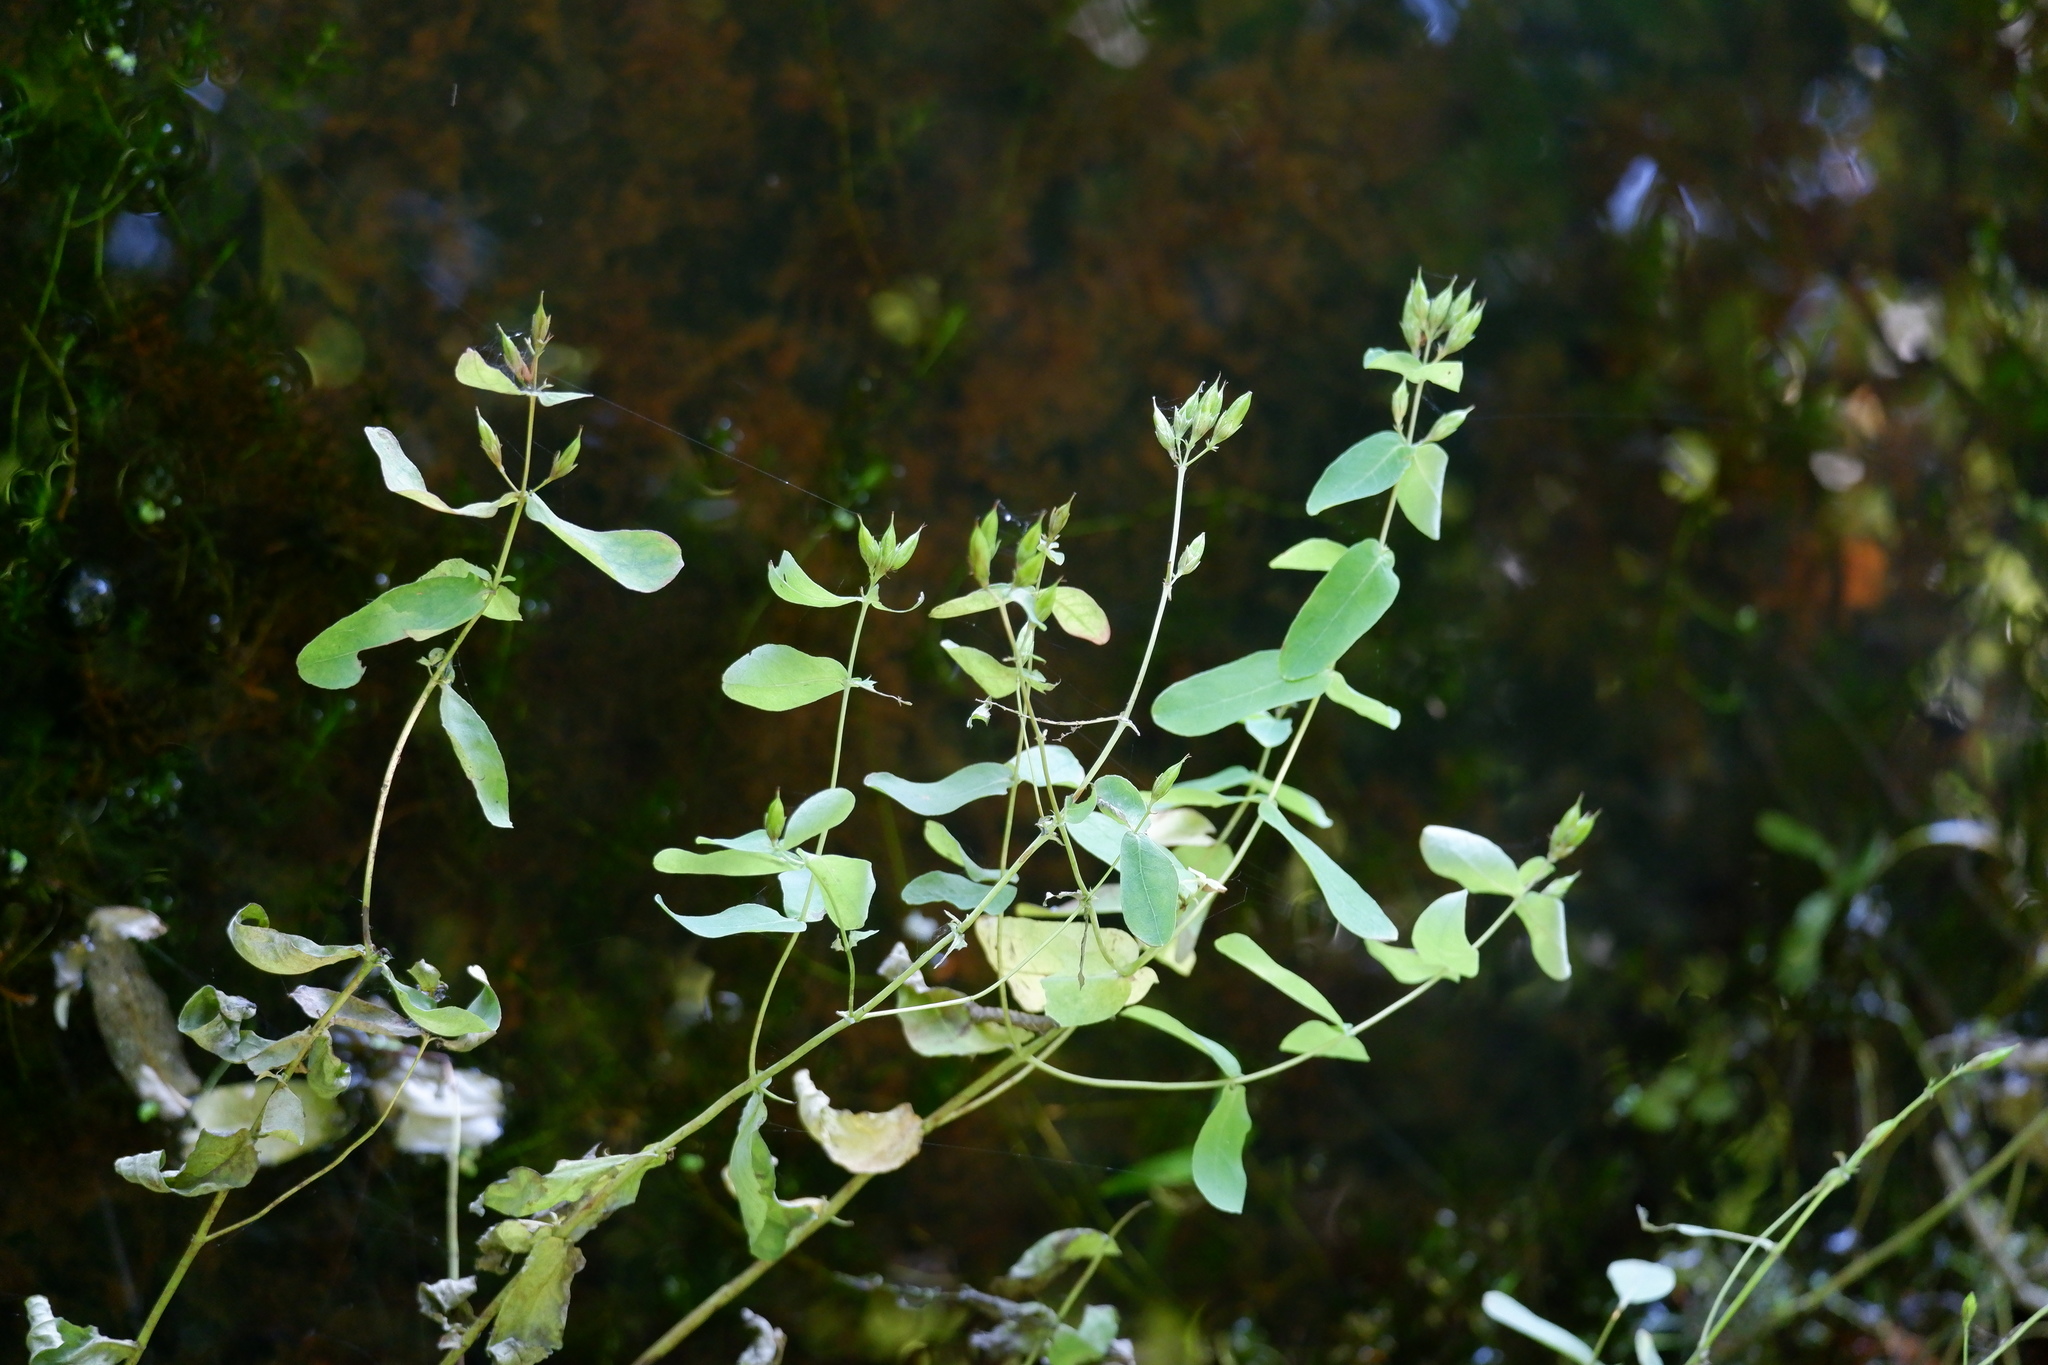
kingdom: Plantae
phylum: Tracheophyta
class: Magnoliopsida
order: Malpighiales
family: Hypericaceae
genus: Triadenum
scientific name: Triadenum virginicum
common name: Marsh st. john's-wort
